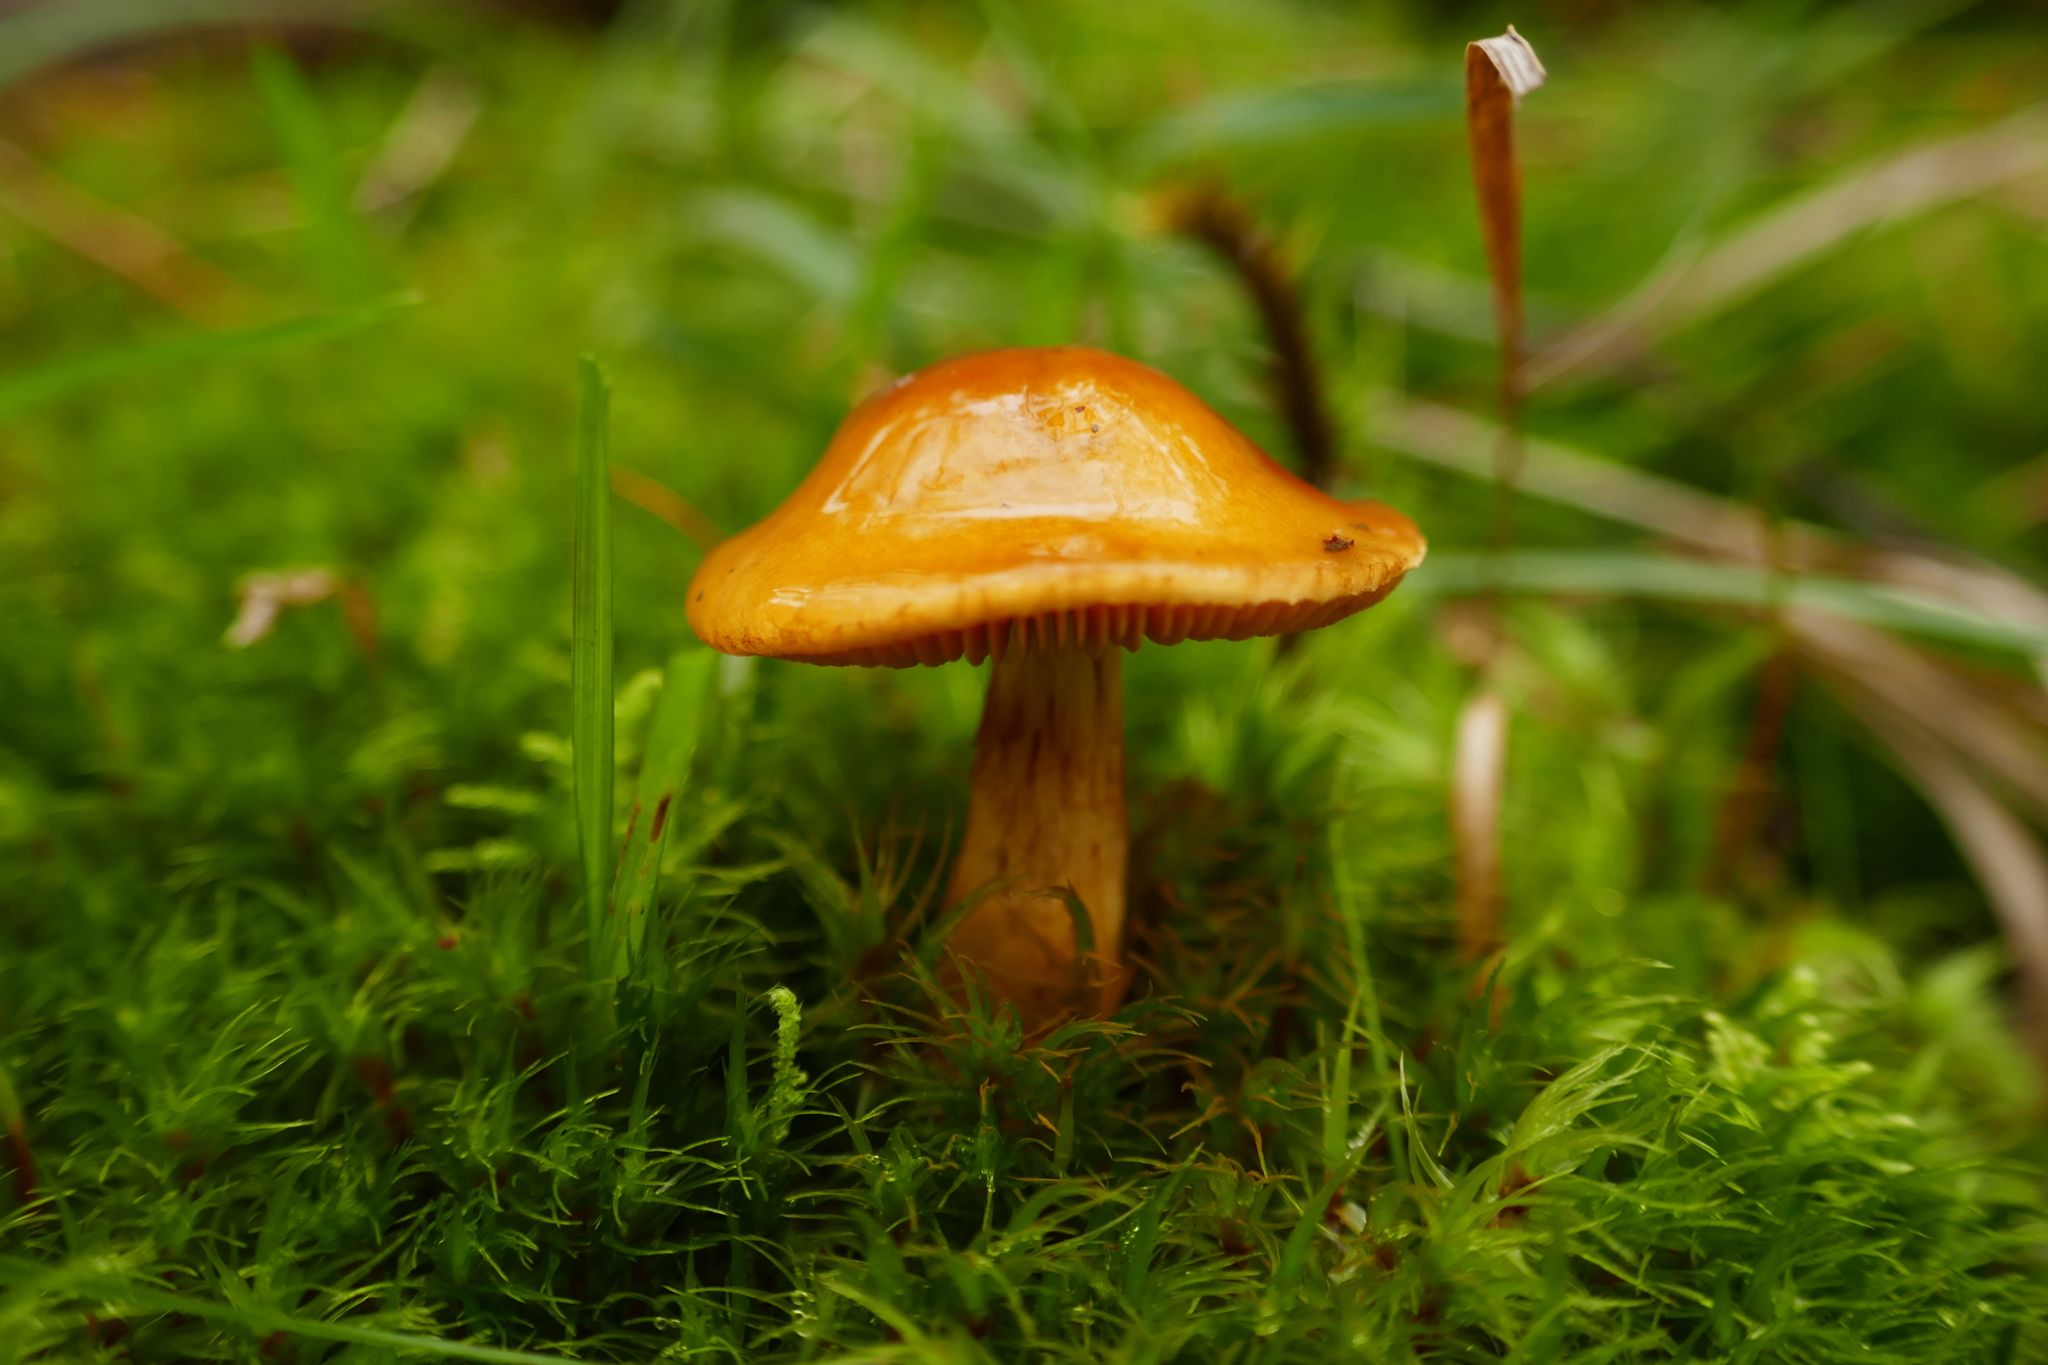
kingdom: Fungi
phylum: Basidiomycota
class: Agaricomycetes
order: Agaricales
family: Cortinariaceae
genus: Cortinarius
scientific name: Cortinarius sinapicolor
